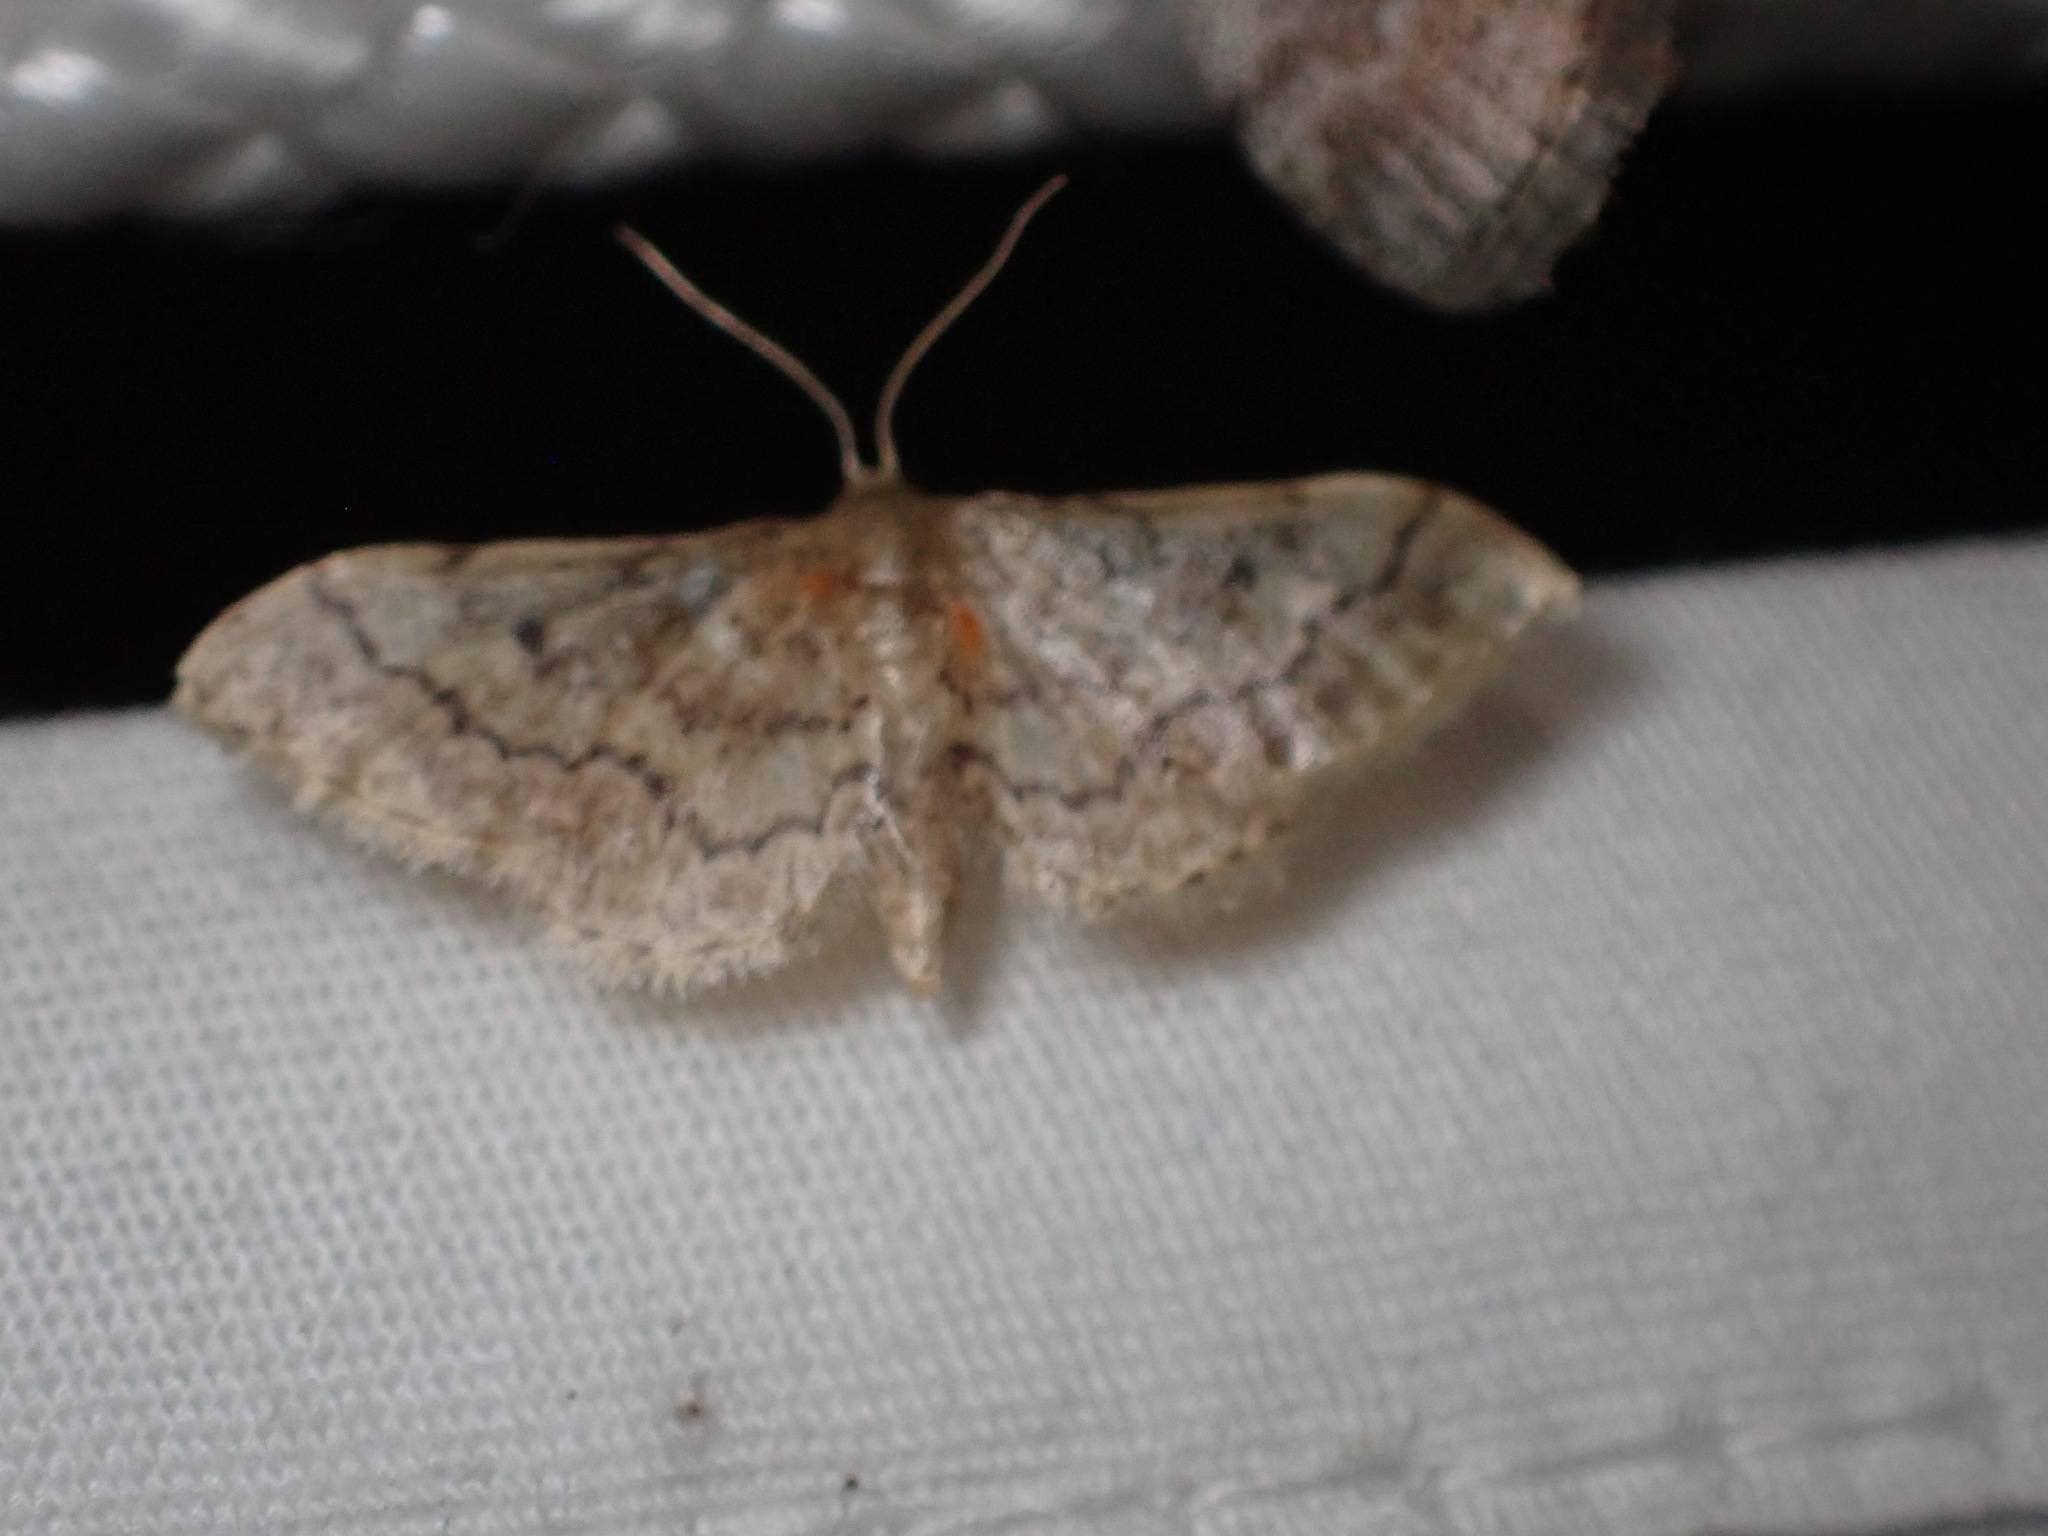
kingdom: Animalia
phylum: Arthropoda
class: Insecta
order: Lepidoptera
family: Geometridae
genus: Idaea
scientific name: Idaea celtima
